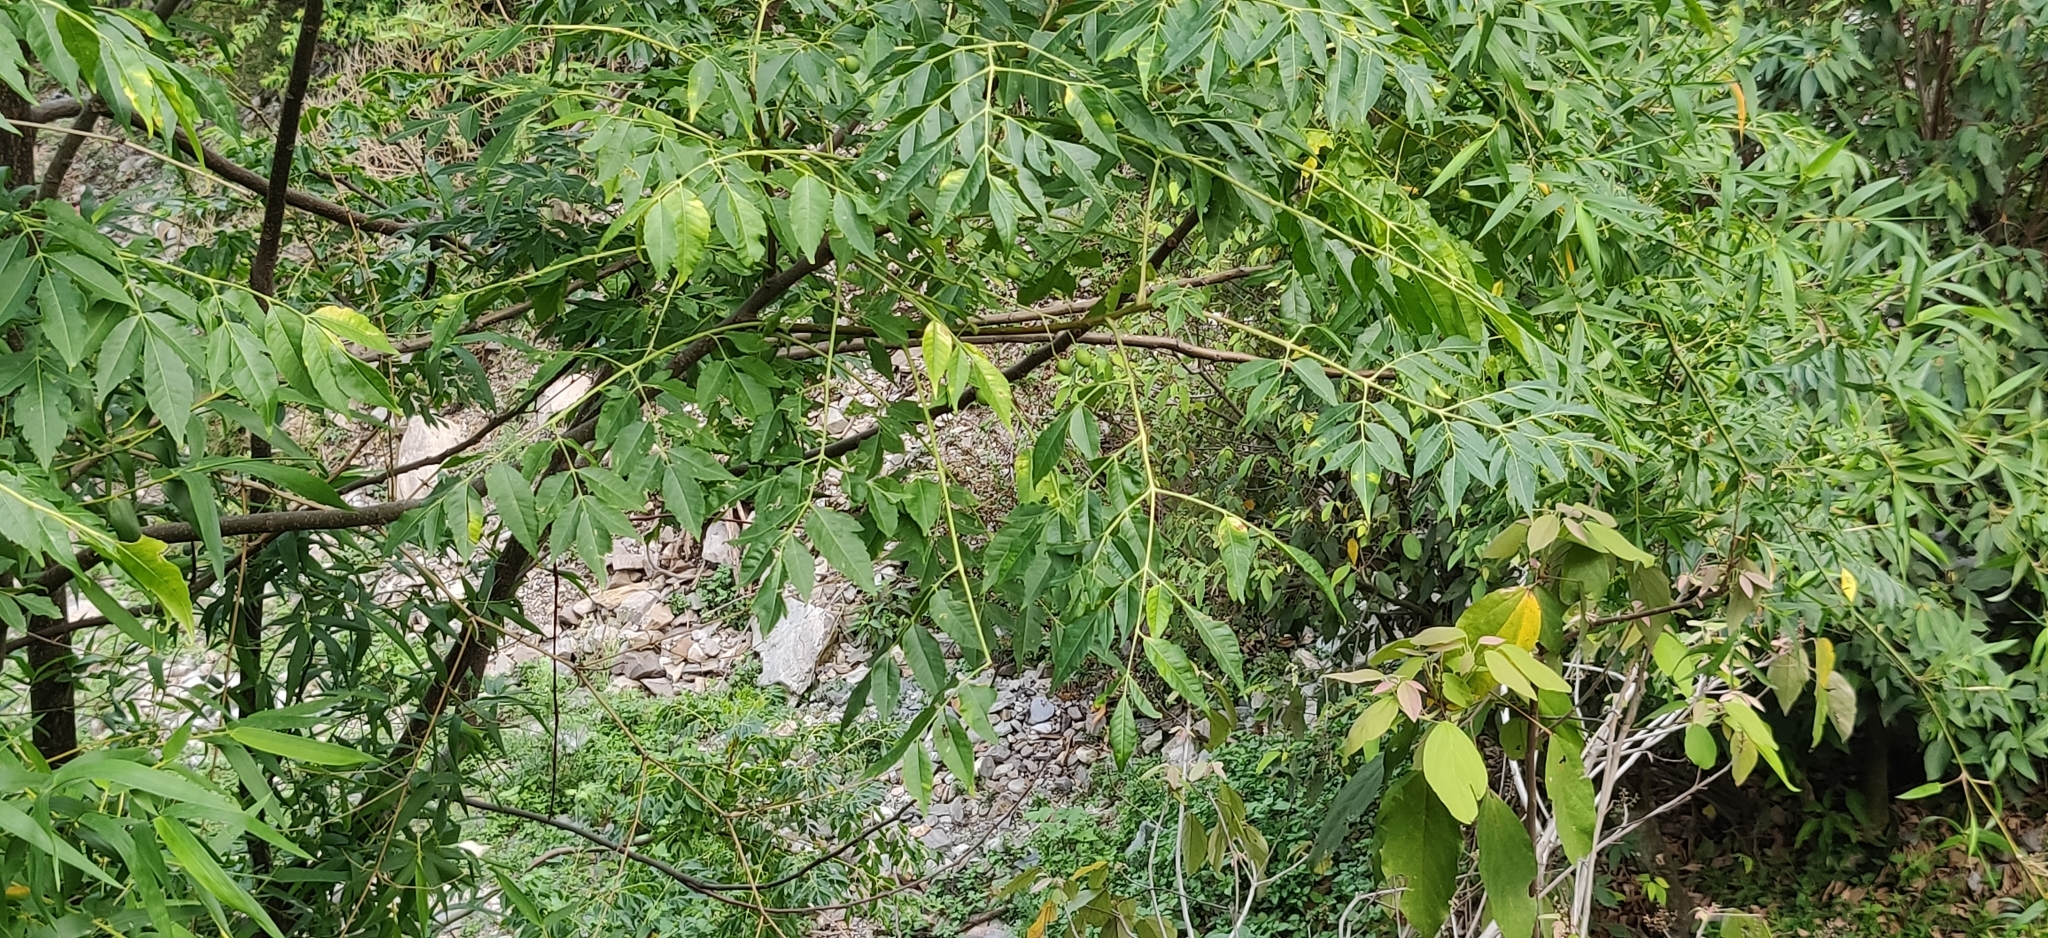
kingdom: Plantae
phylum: Tracheophyta
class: Magnoliopsida
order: Sapindales
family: Meliaceae
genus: Melia
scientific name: Melia azedarach
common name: Chinaberrytree
